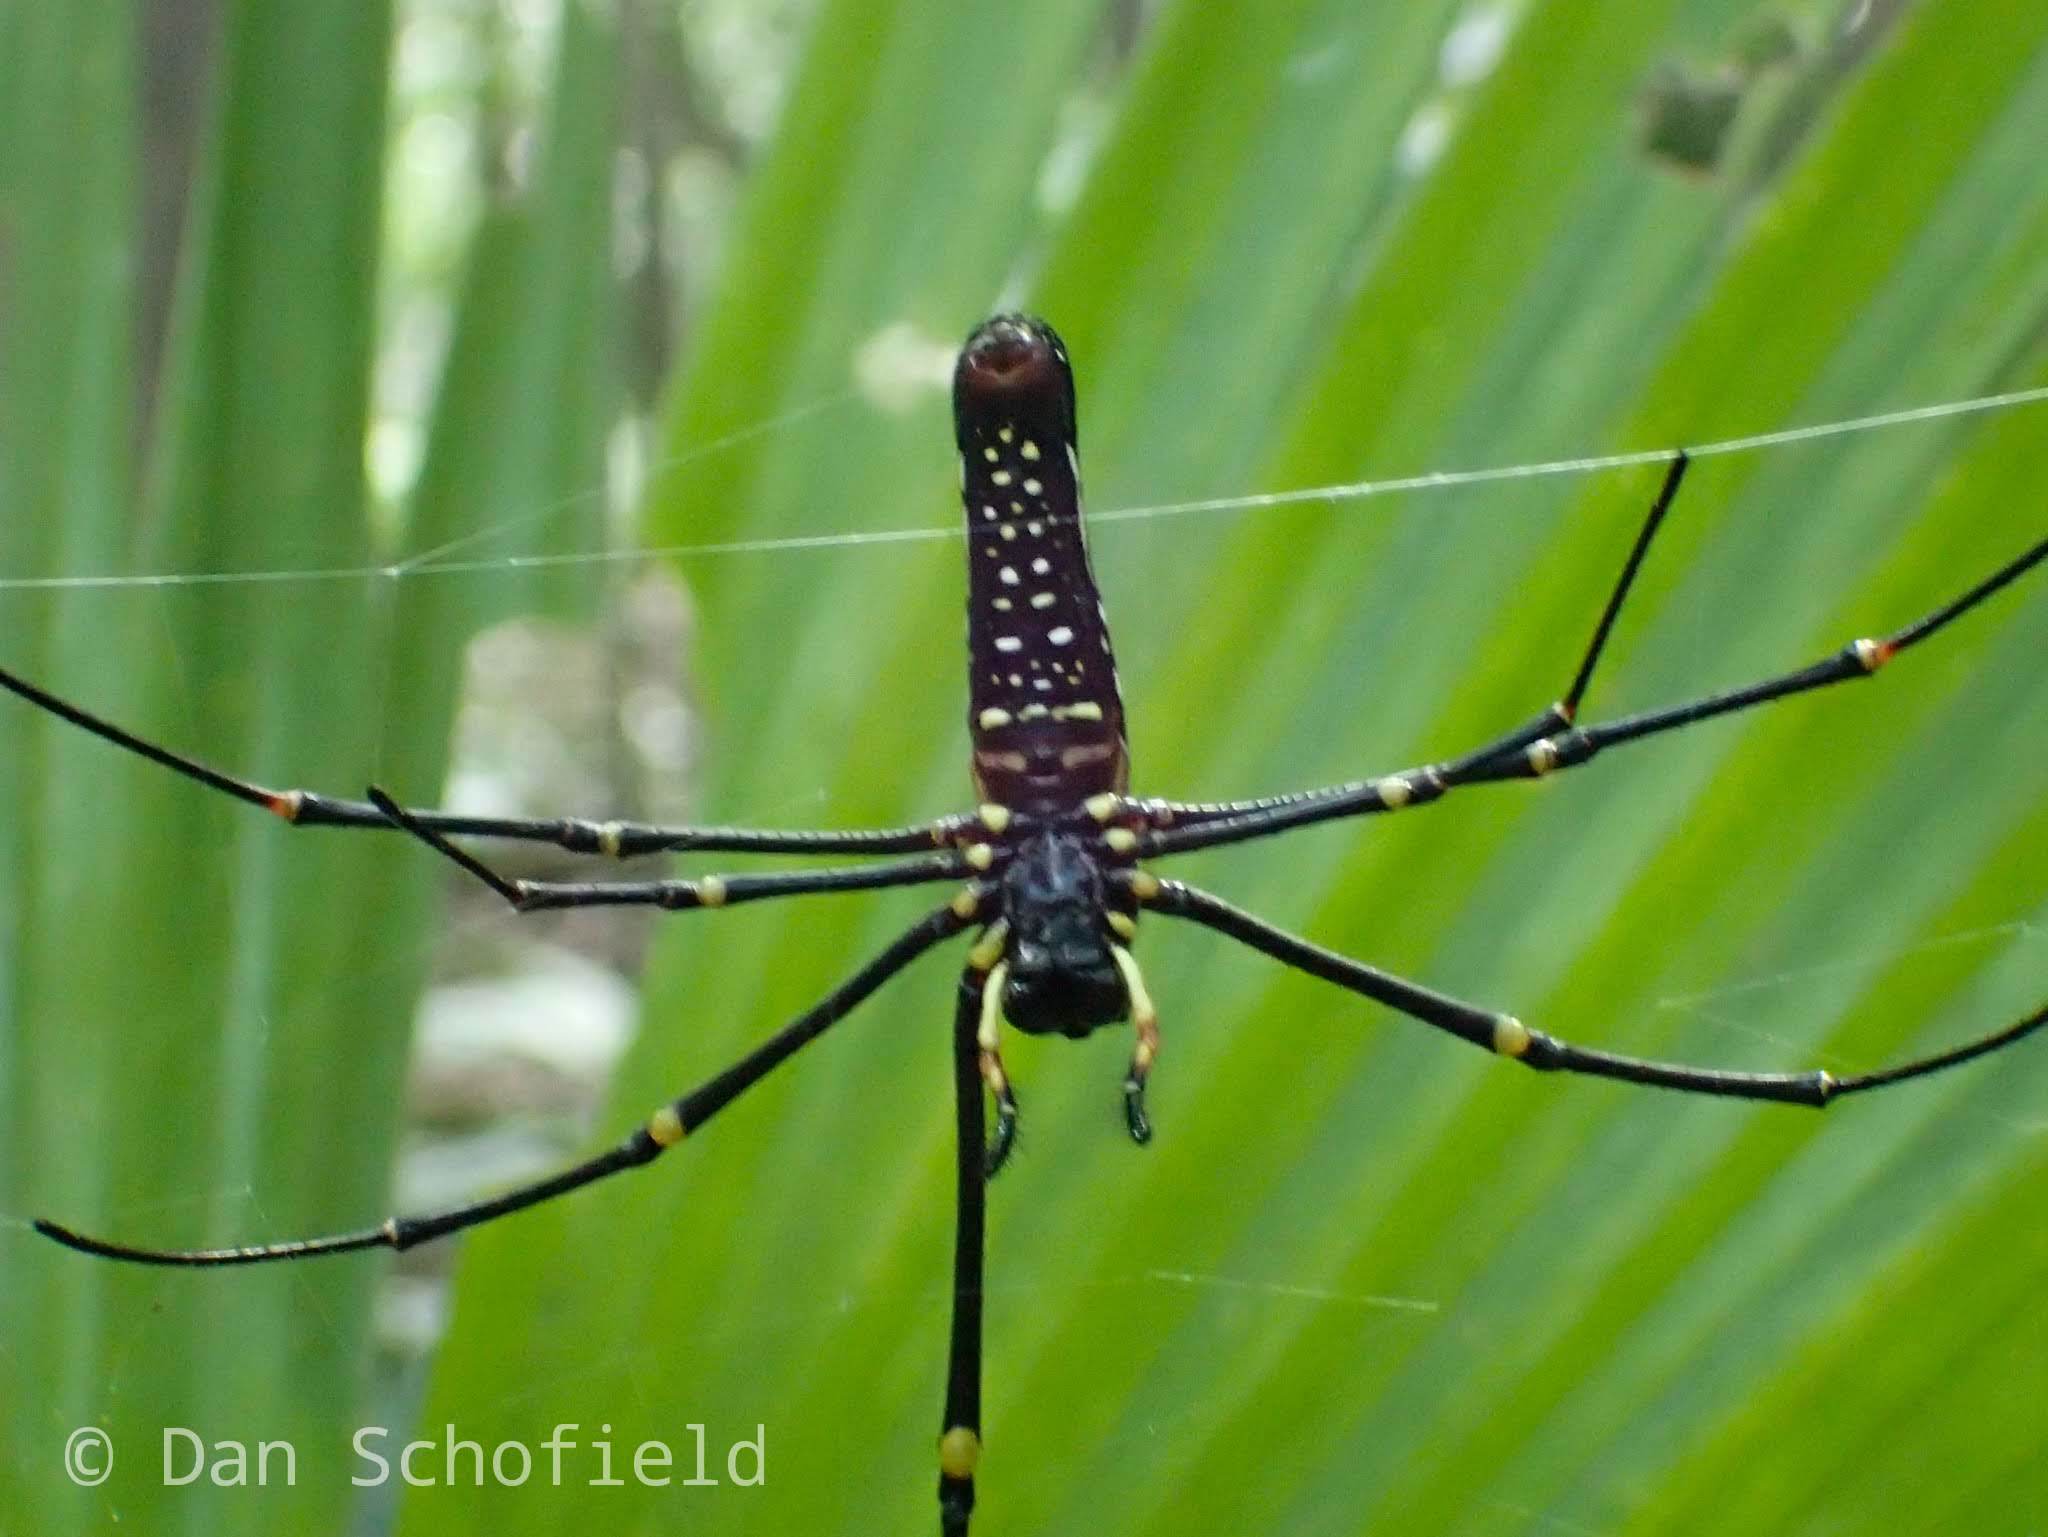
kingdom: Animalia
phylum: Arthropoda
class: Arachnida
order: Araneae
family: Araneidae
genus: Nephila
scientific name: Nephila pilipes
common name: Giant golden orb weaver
